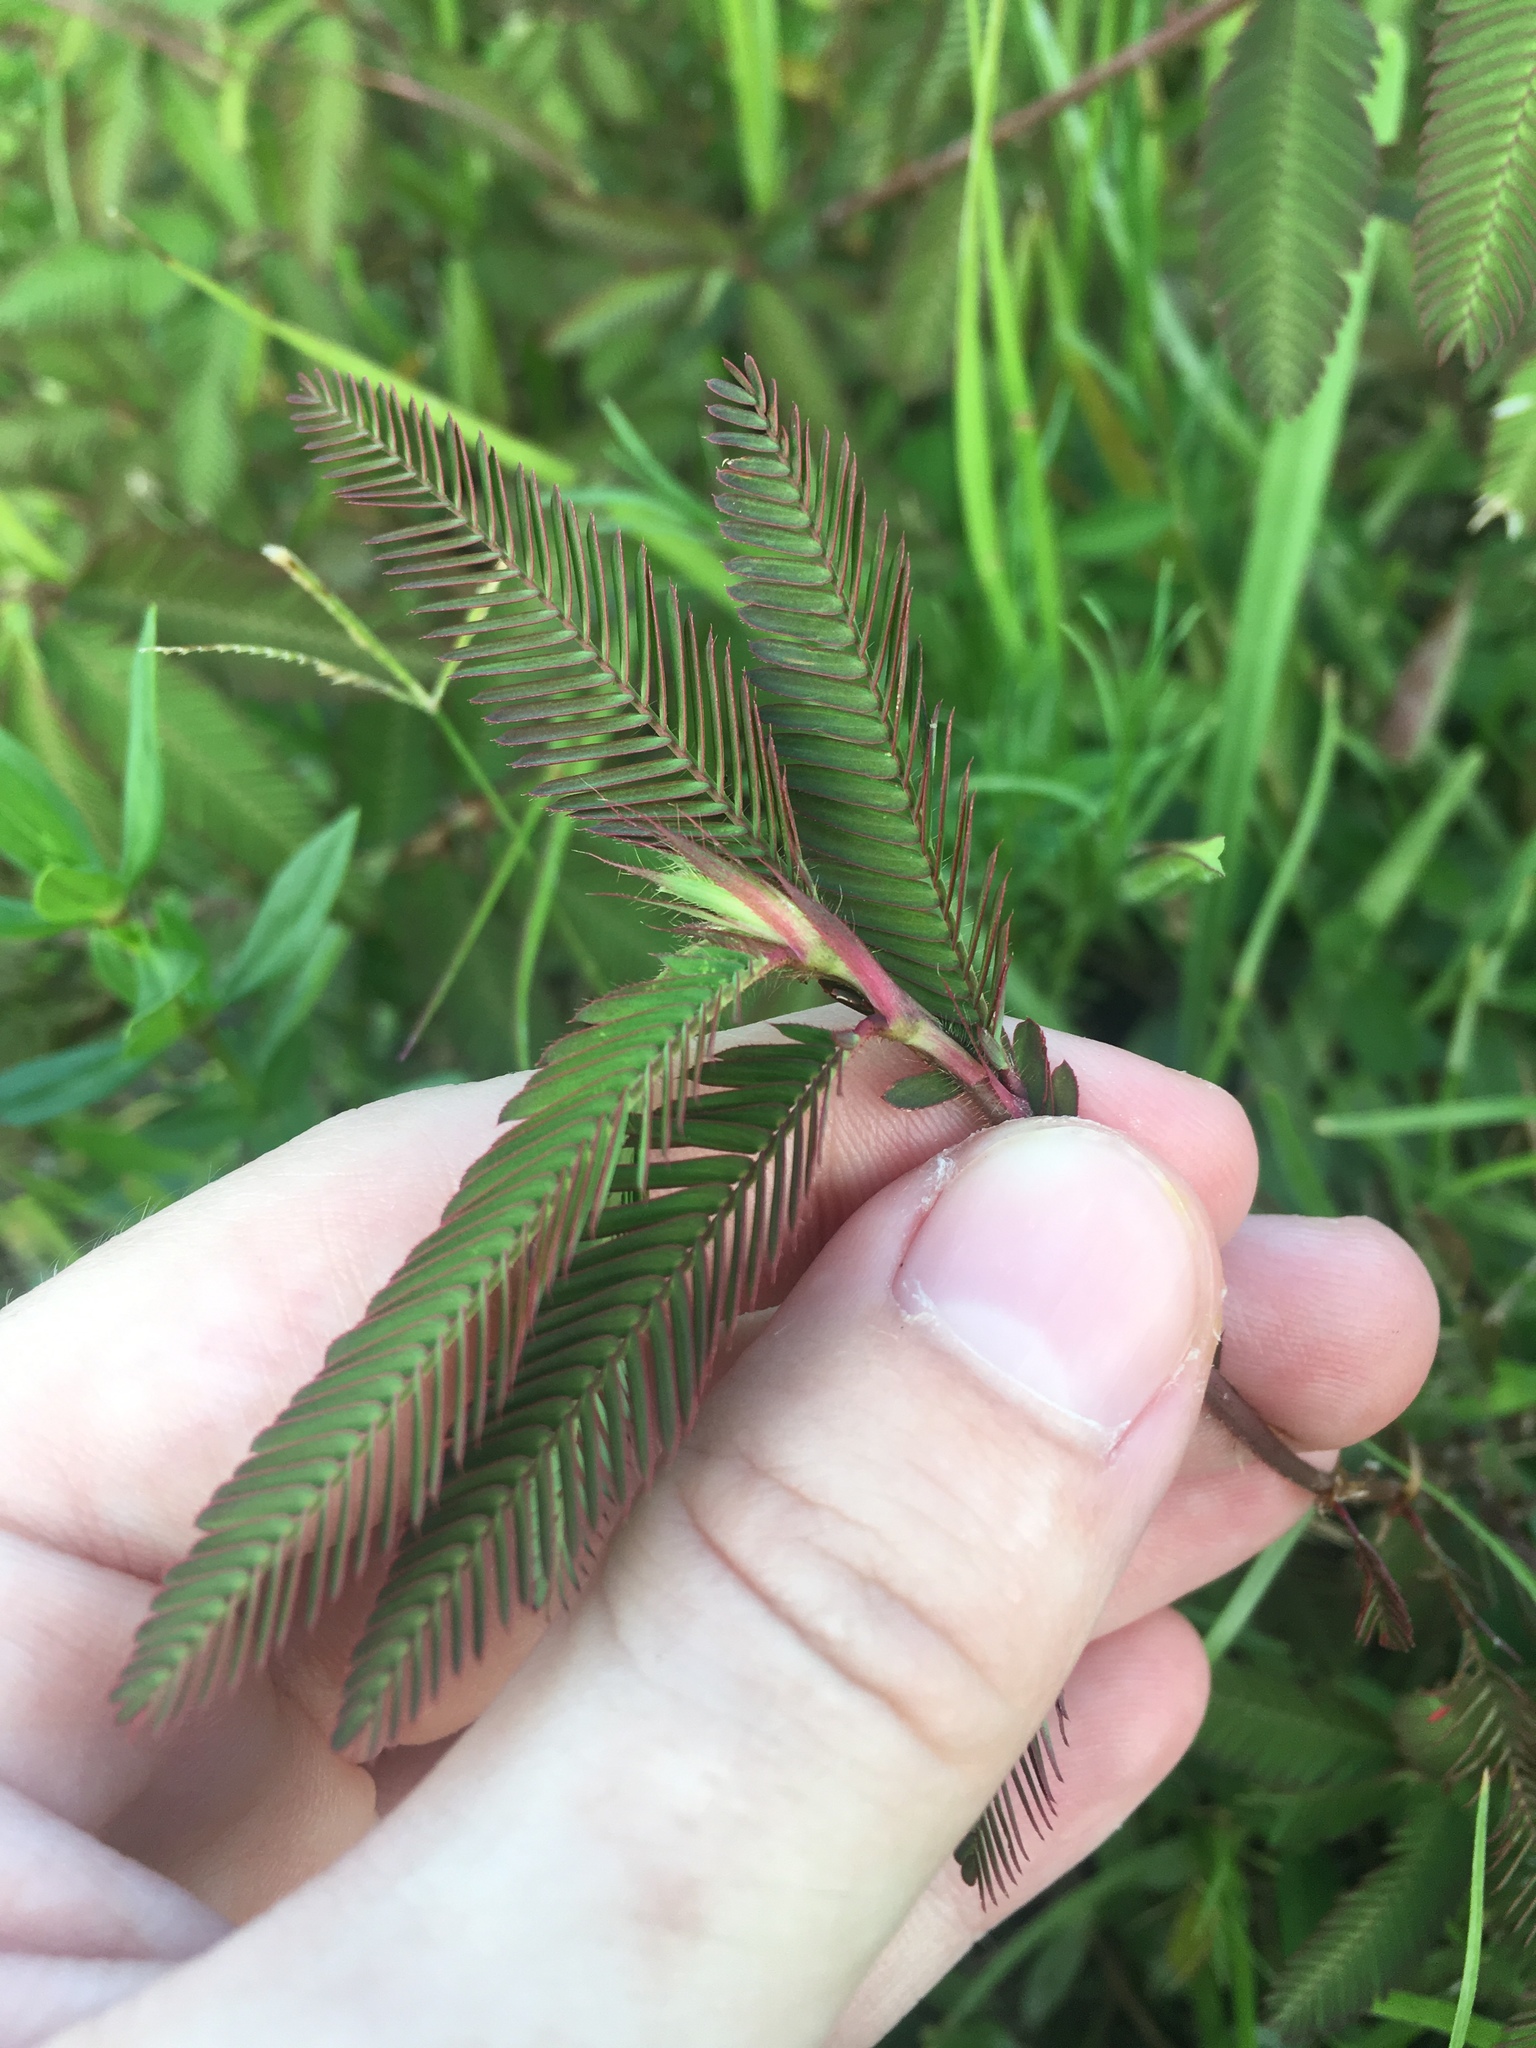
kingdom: Plantae
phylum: Tracheophyta
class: Magnoliopsida
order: Fabales
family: Fabaceae
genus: Mimosa
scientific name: Mimosa strigillosa
